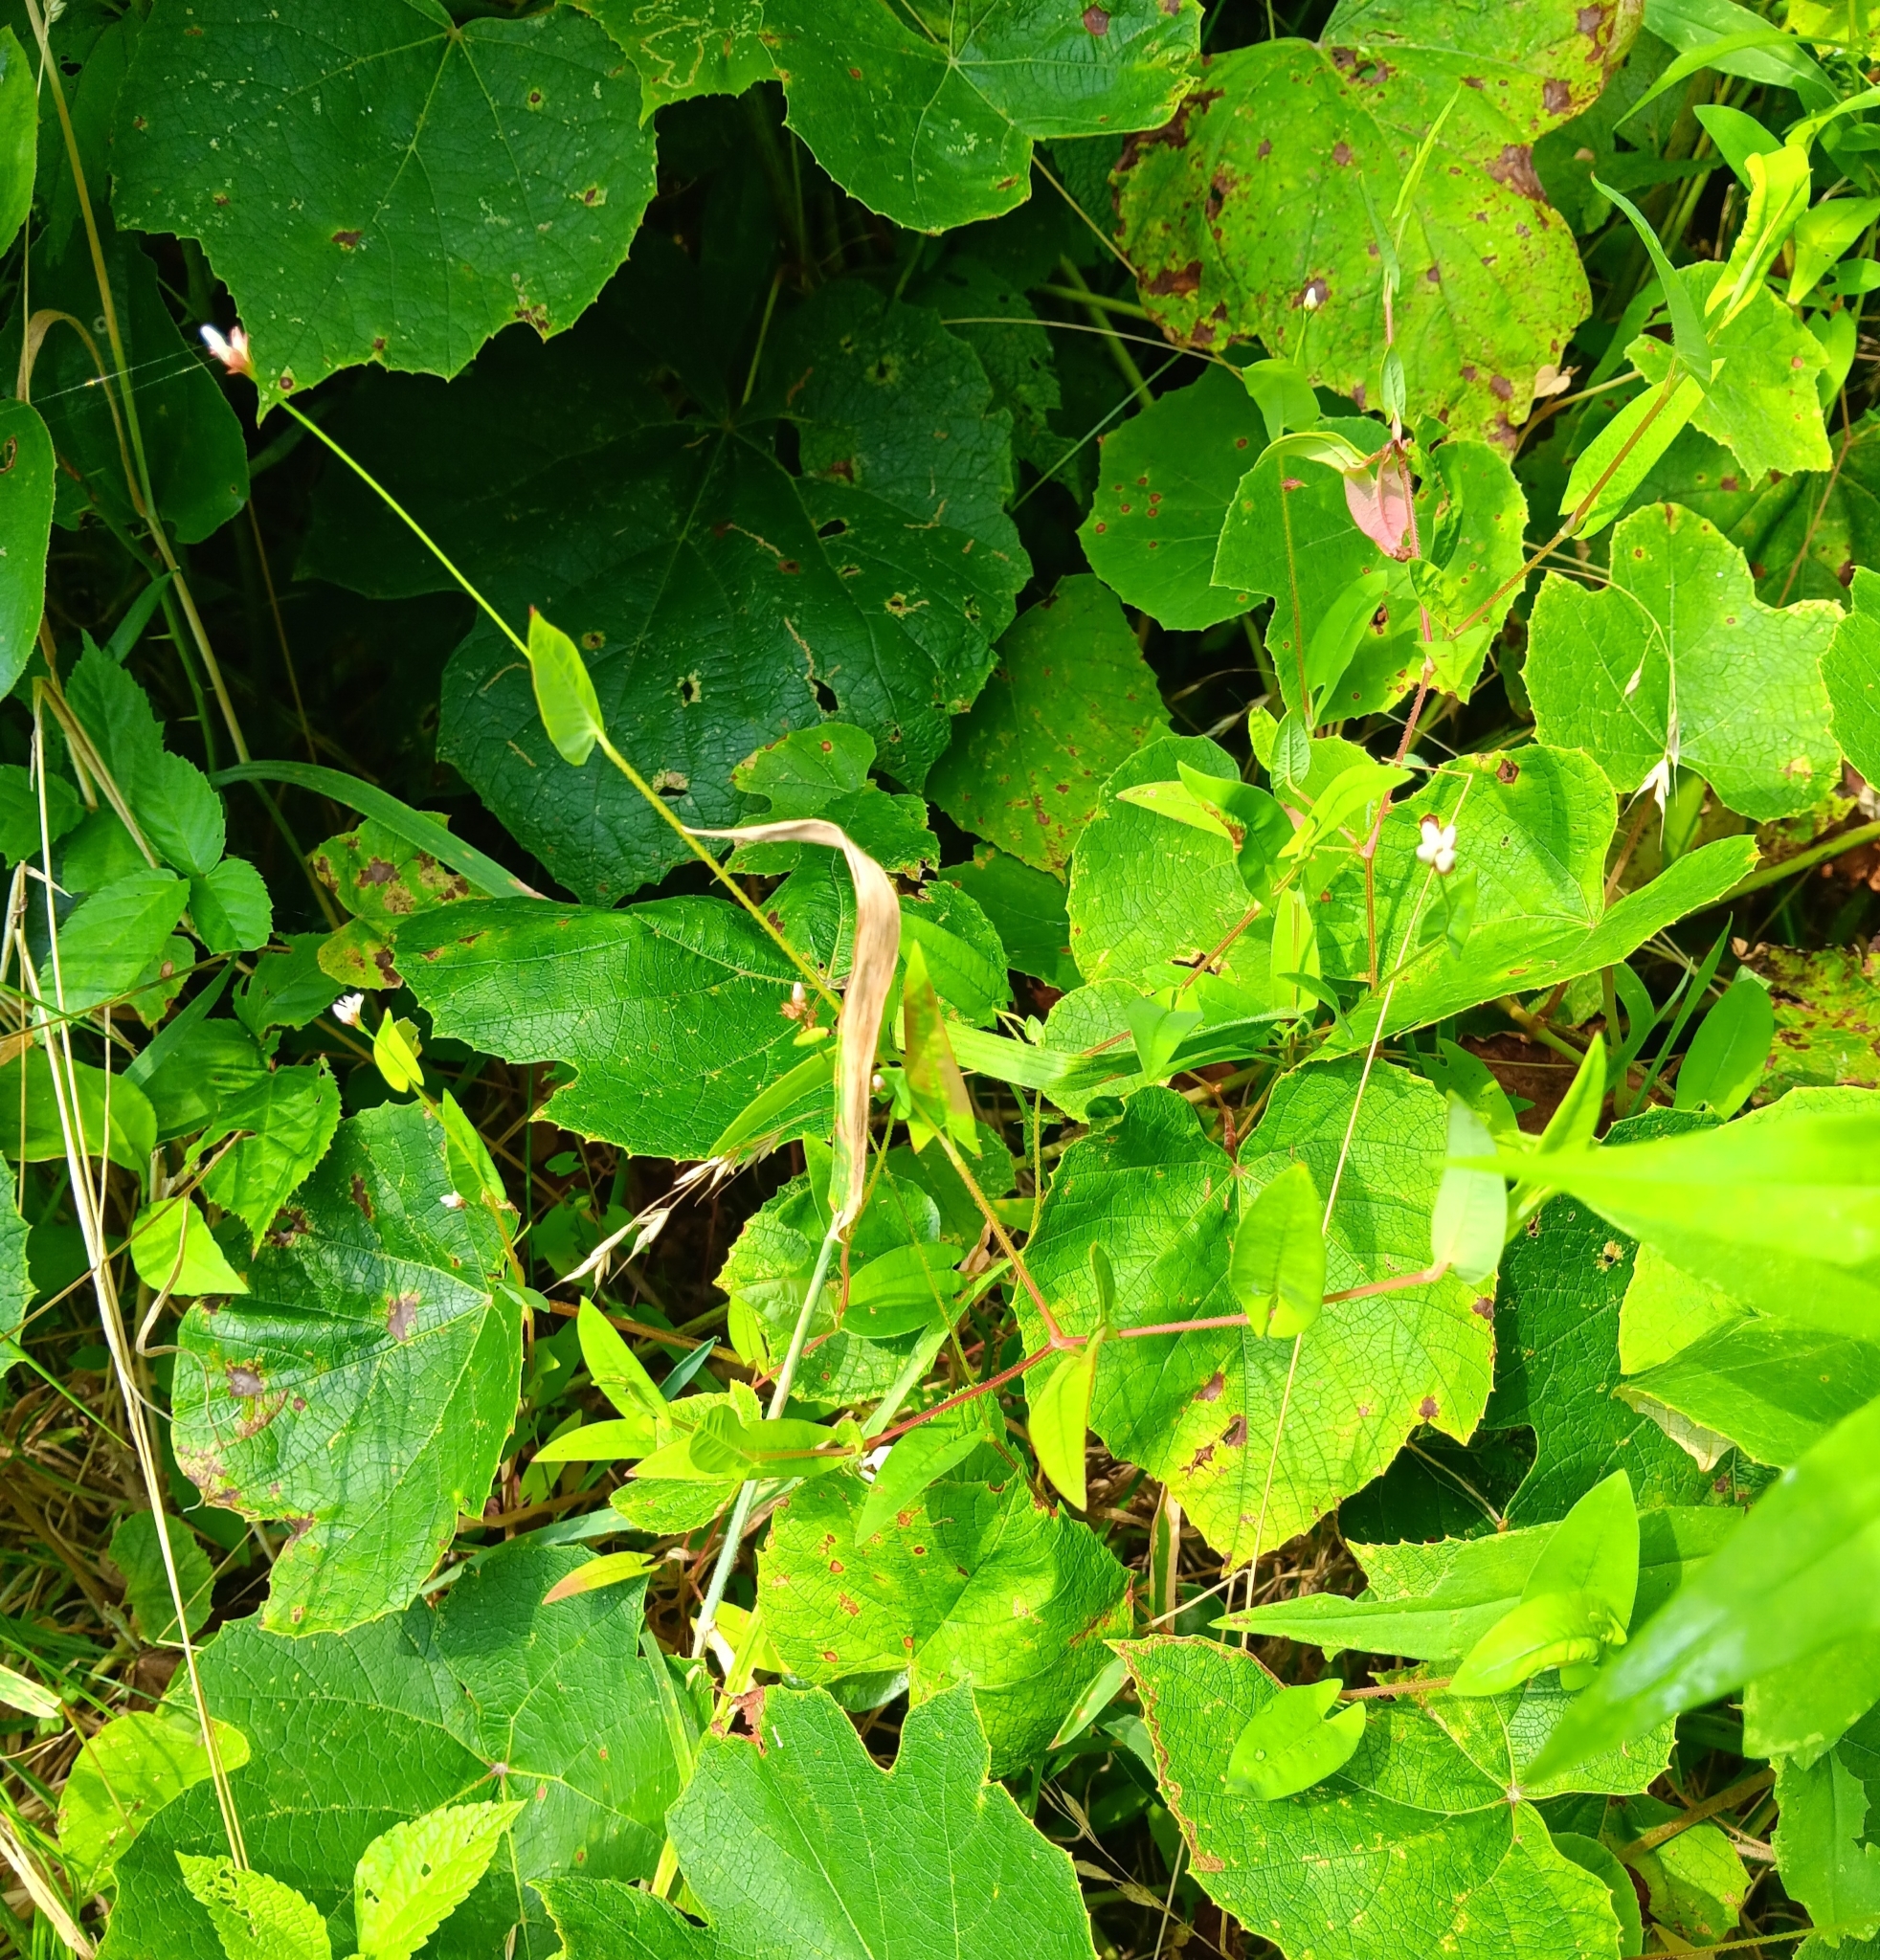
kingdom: Plantae
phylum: Tracheophyta
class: Magnoliopsida
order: Caryophyllales
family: Polygonaceae
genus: Persicaria
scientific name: Persicaria sagittata
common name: American tearthumb
